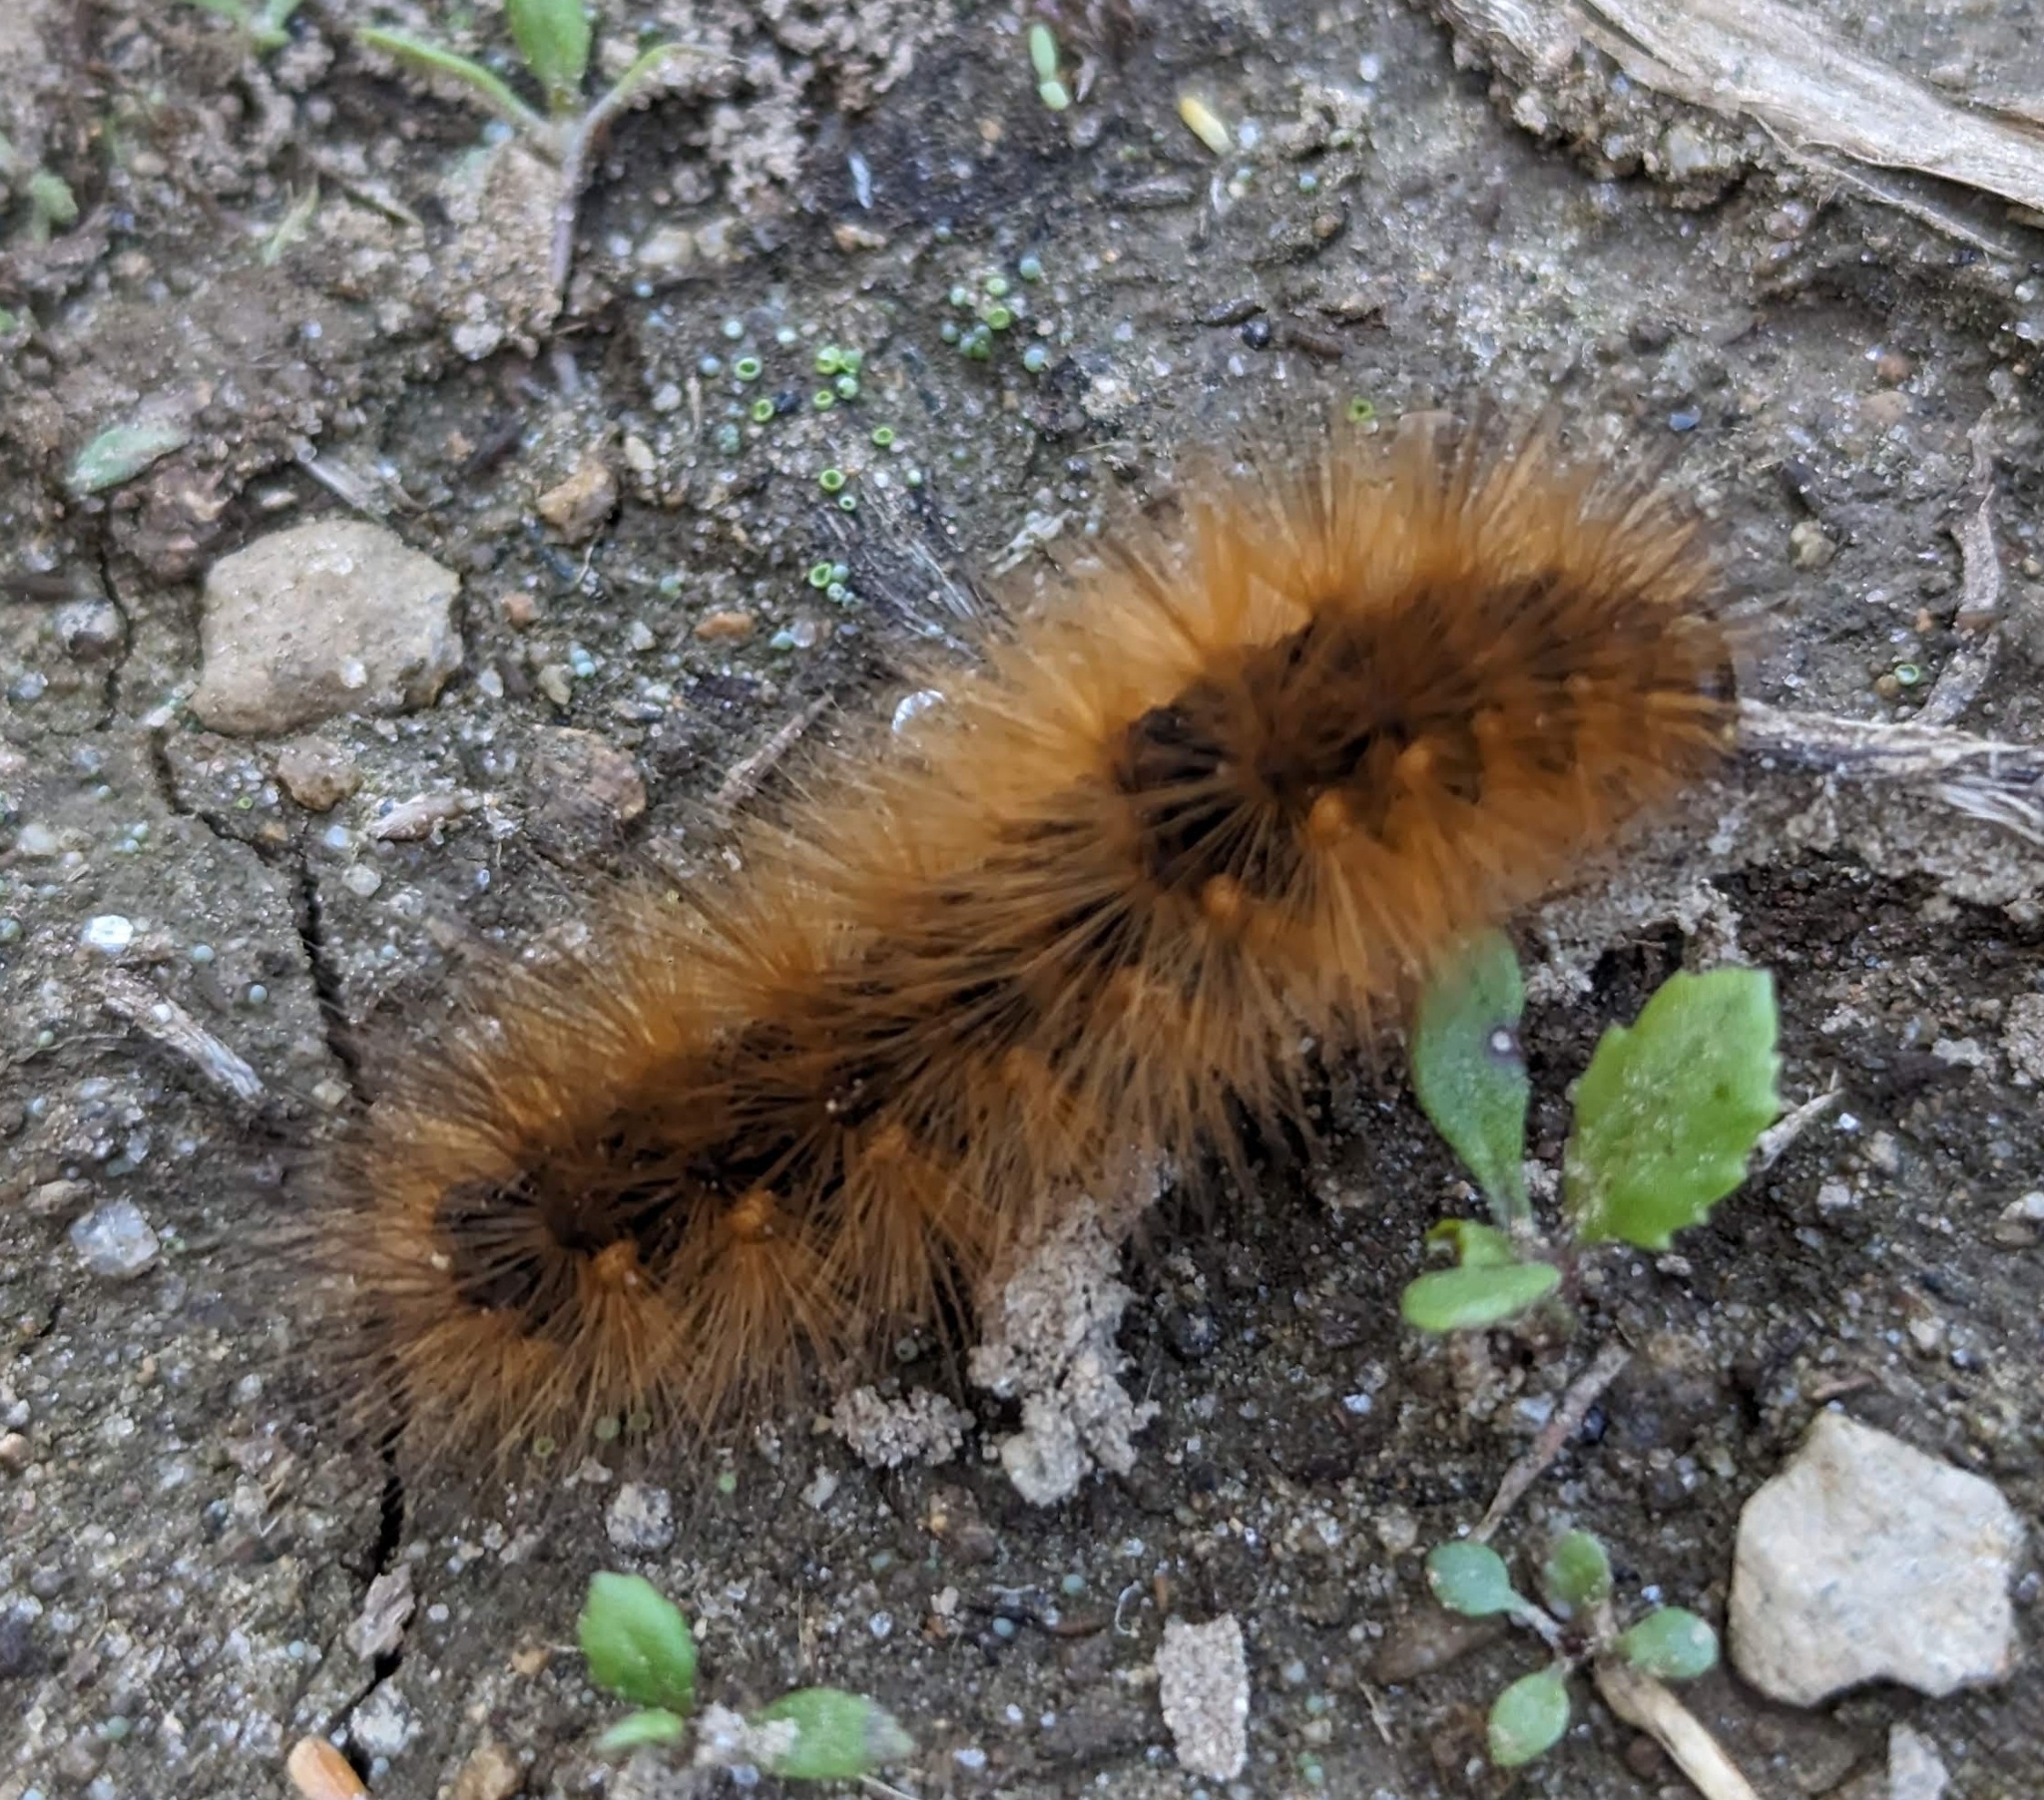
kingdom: Animalia
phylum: Arthropoda
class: Insecta
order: Lepidoptera
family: Erebidae
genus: Estigmene
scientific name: Estigmene acrea
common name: Salt marsh moth
